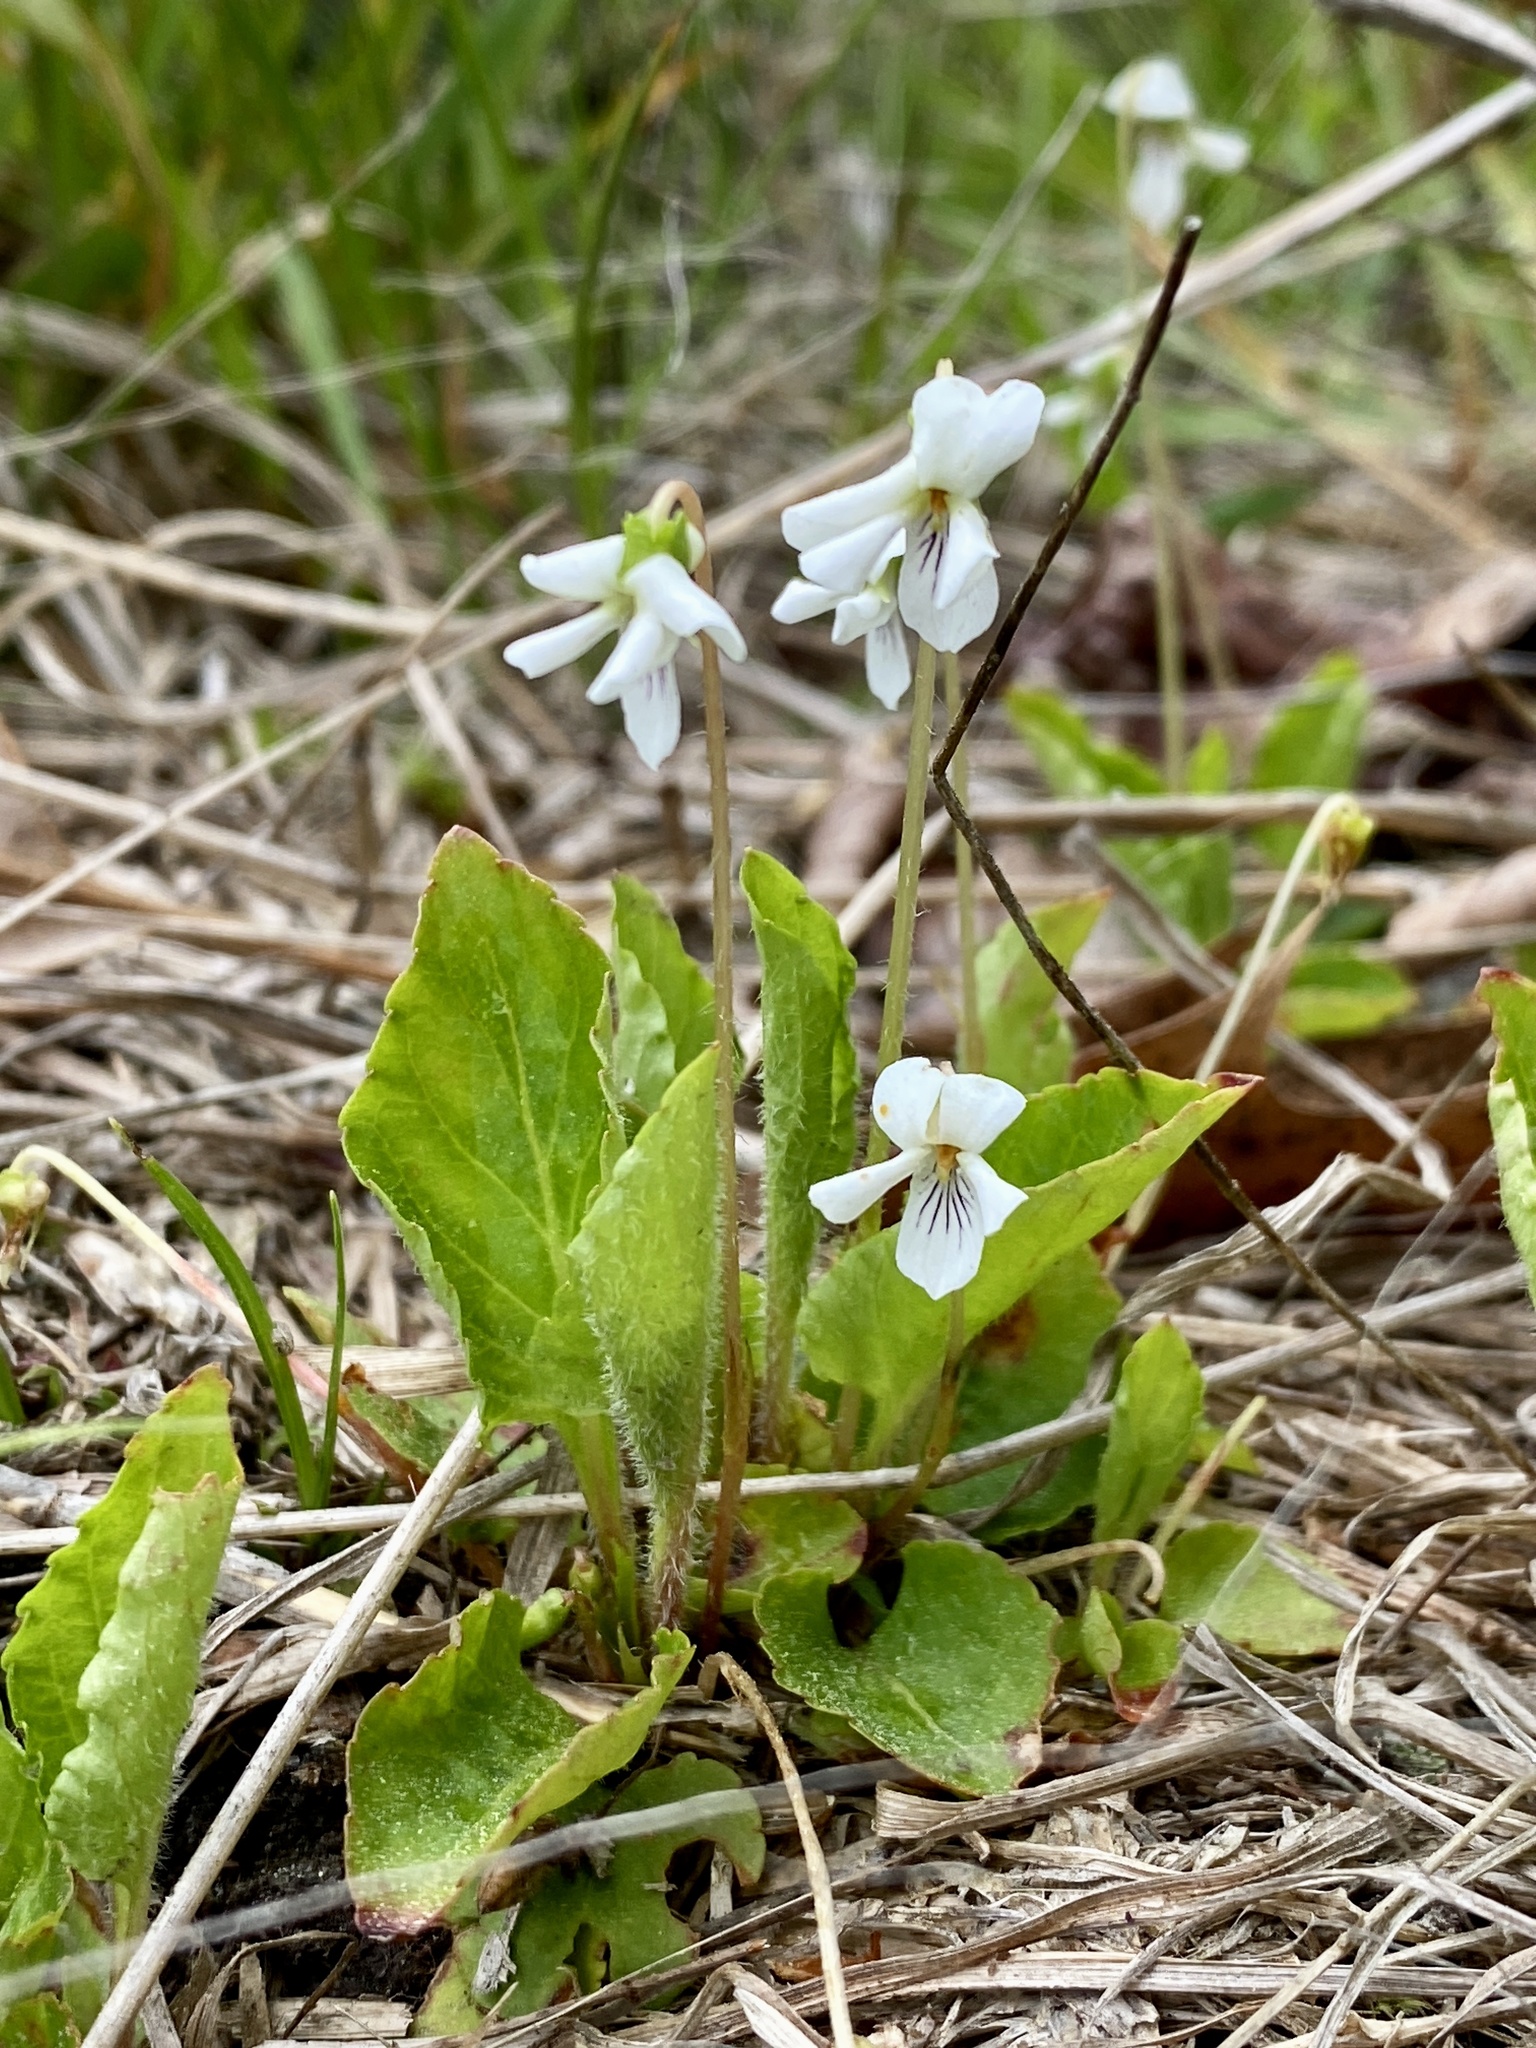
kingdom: Plantae
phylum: Tracheophyta
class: Magnoliopsida
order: Malpighiales
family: Violaceae
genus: Viola
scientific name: Viola primulifolia
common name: Primrose-leaf violet
